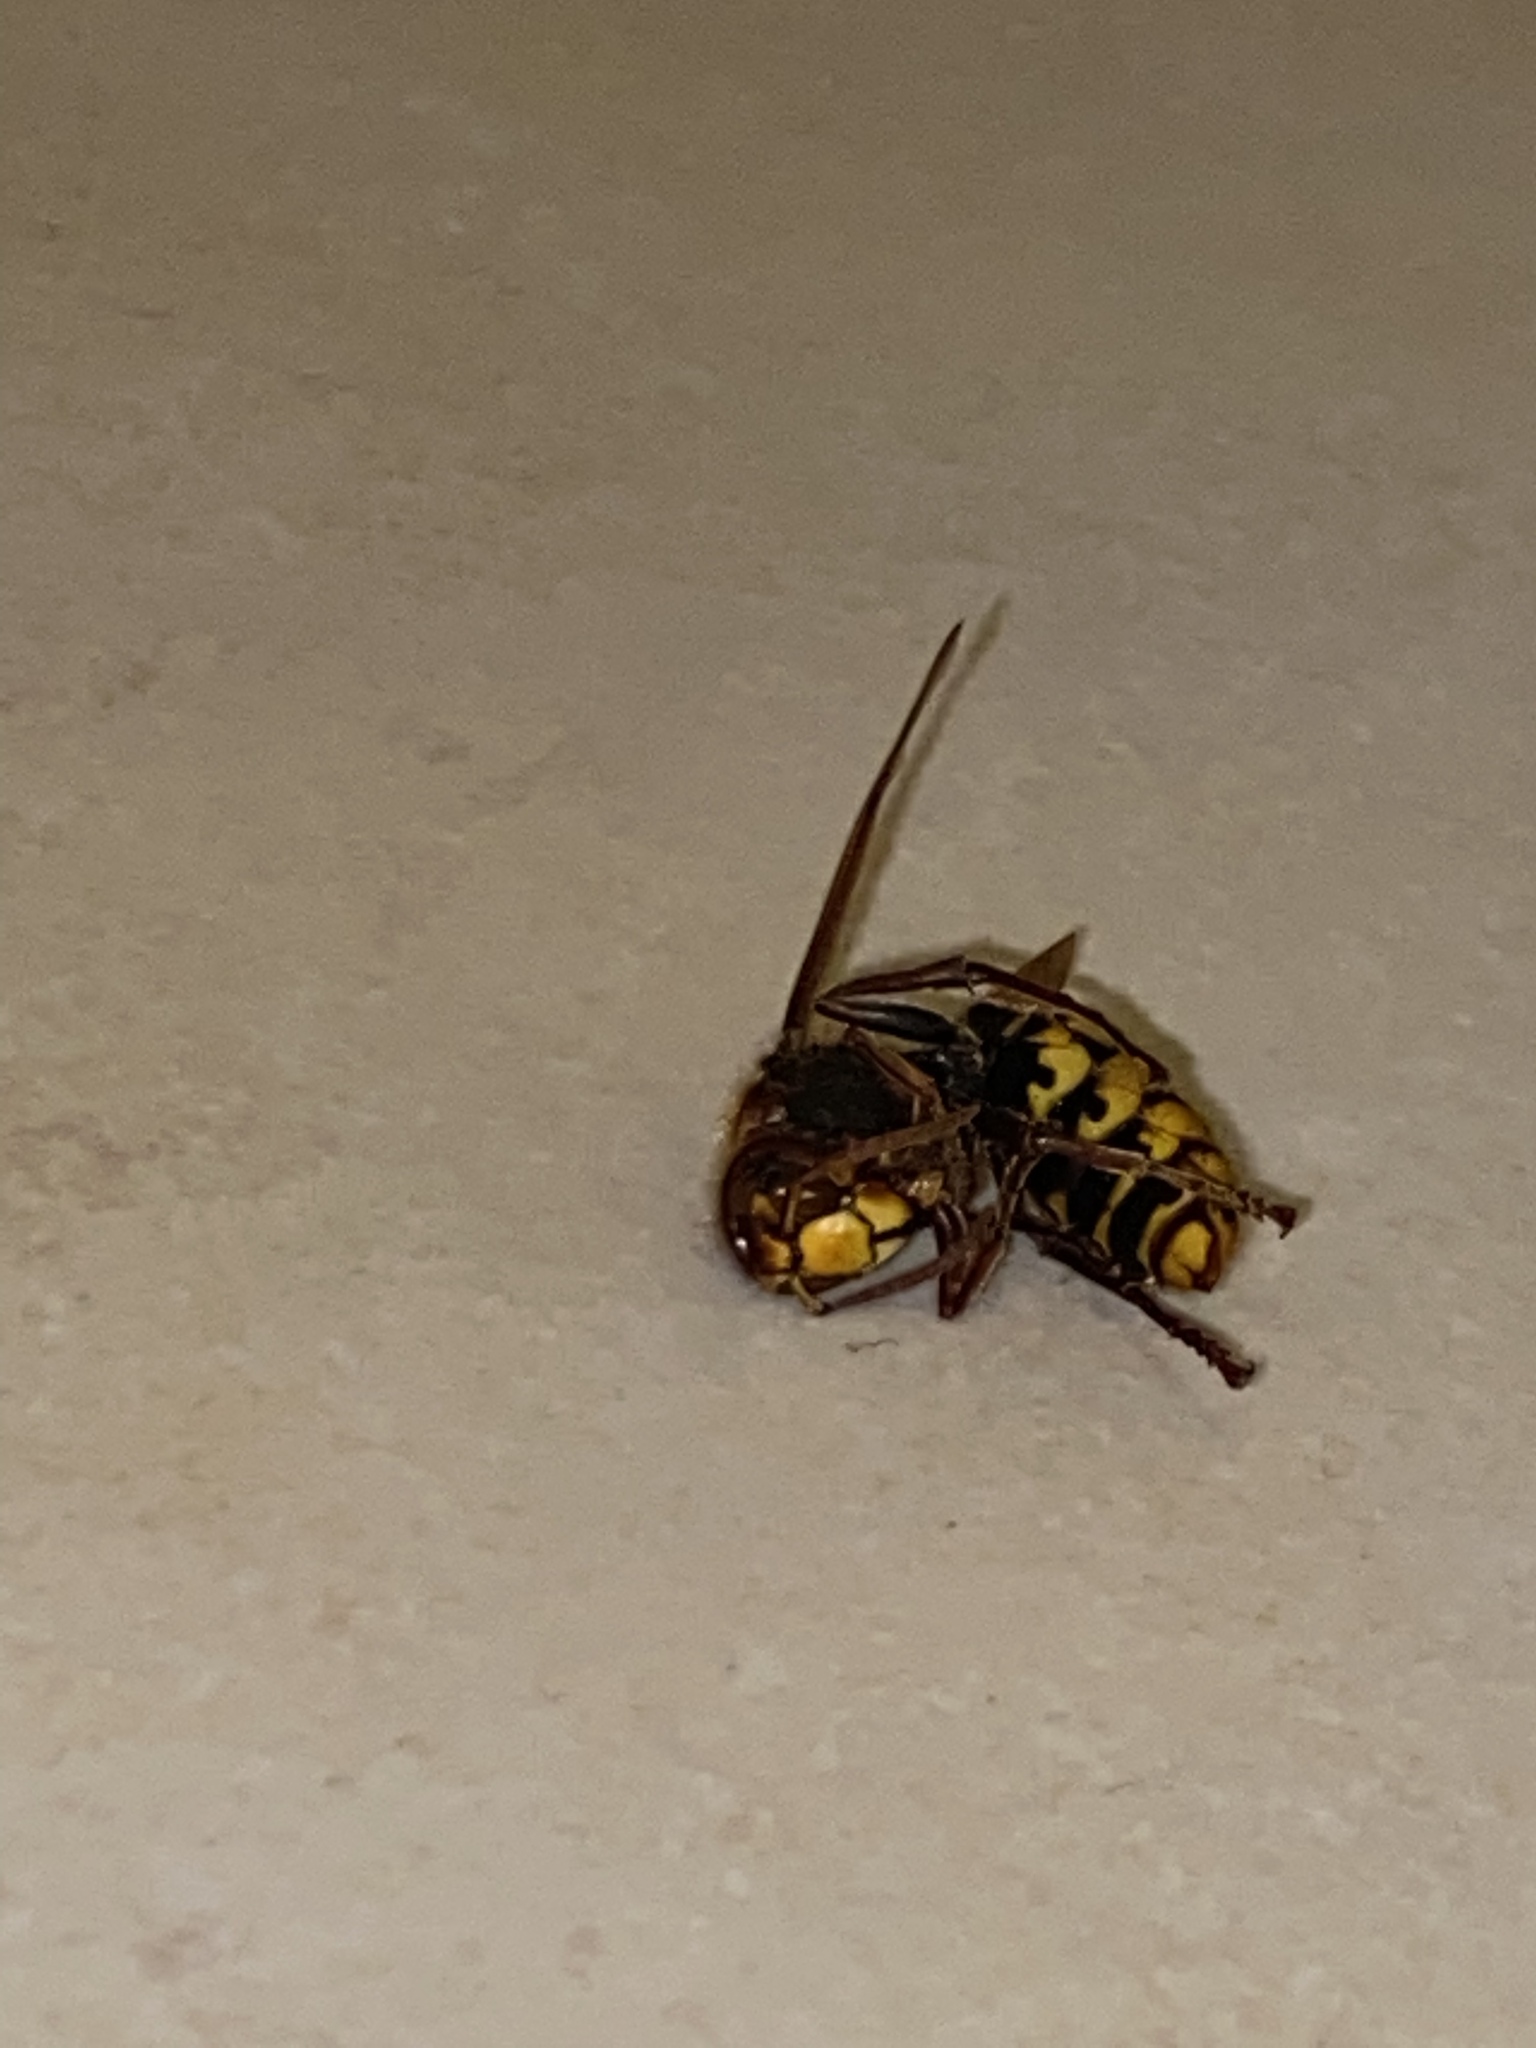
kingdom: Animalia
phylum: Arthropoda
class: Insecta
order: Hymenoptera
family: Vespidae
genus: Vespa
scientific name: Vespa crabro
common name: Hornet
